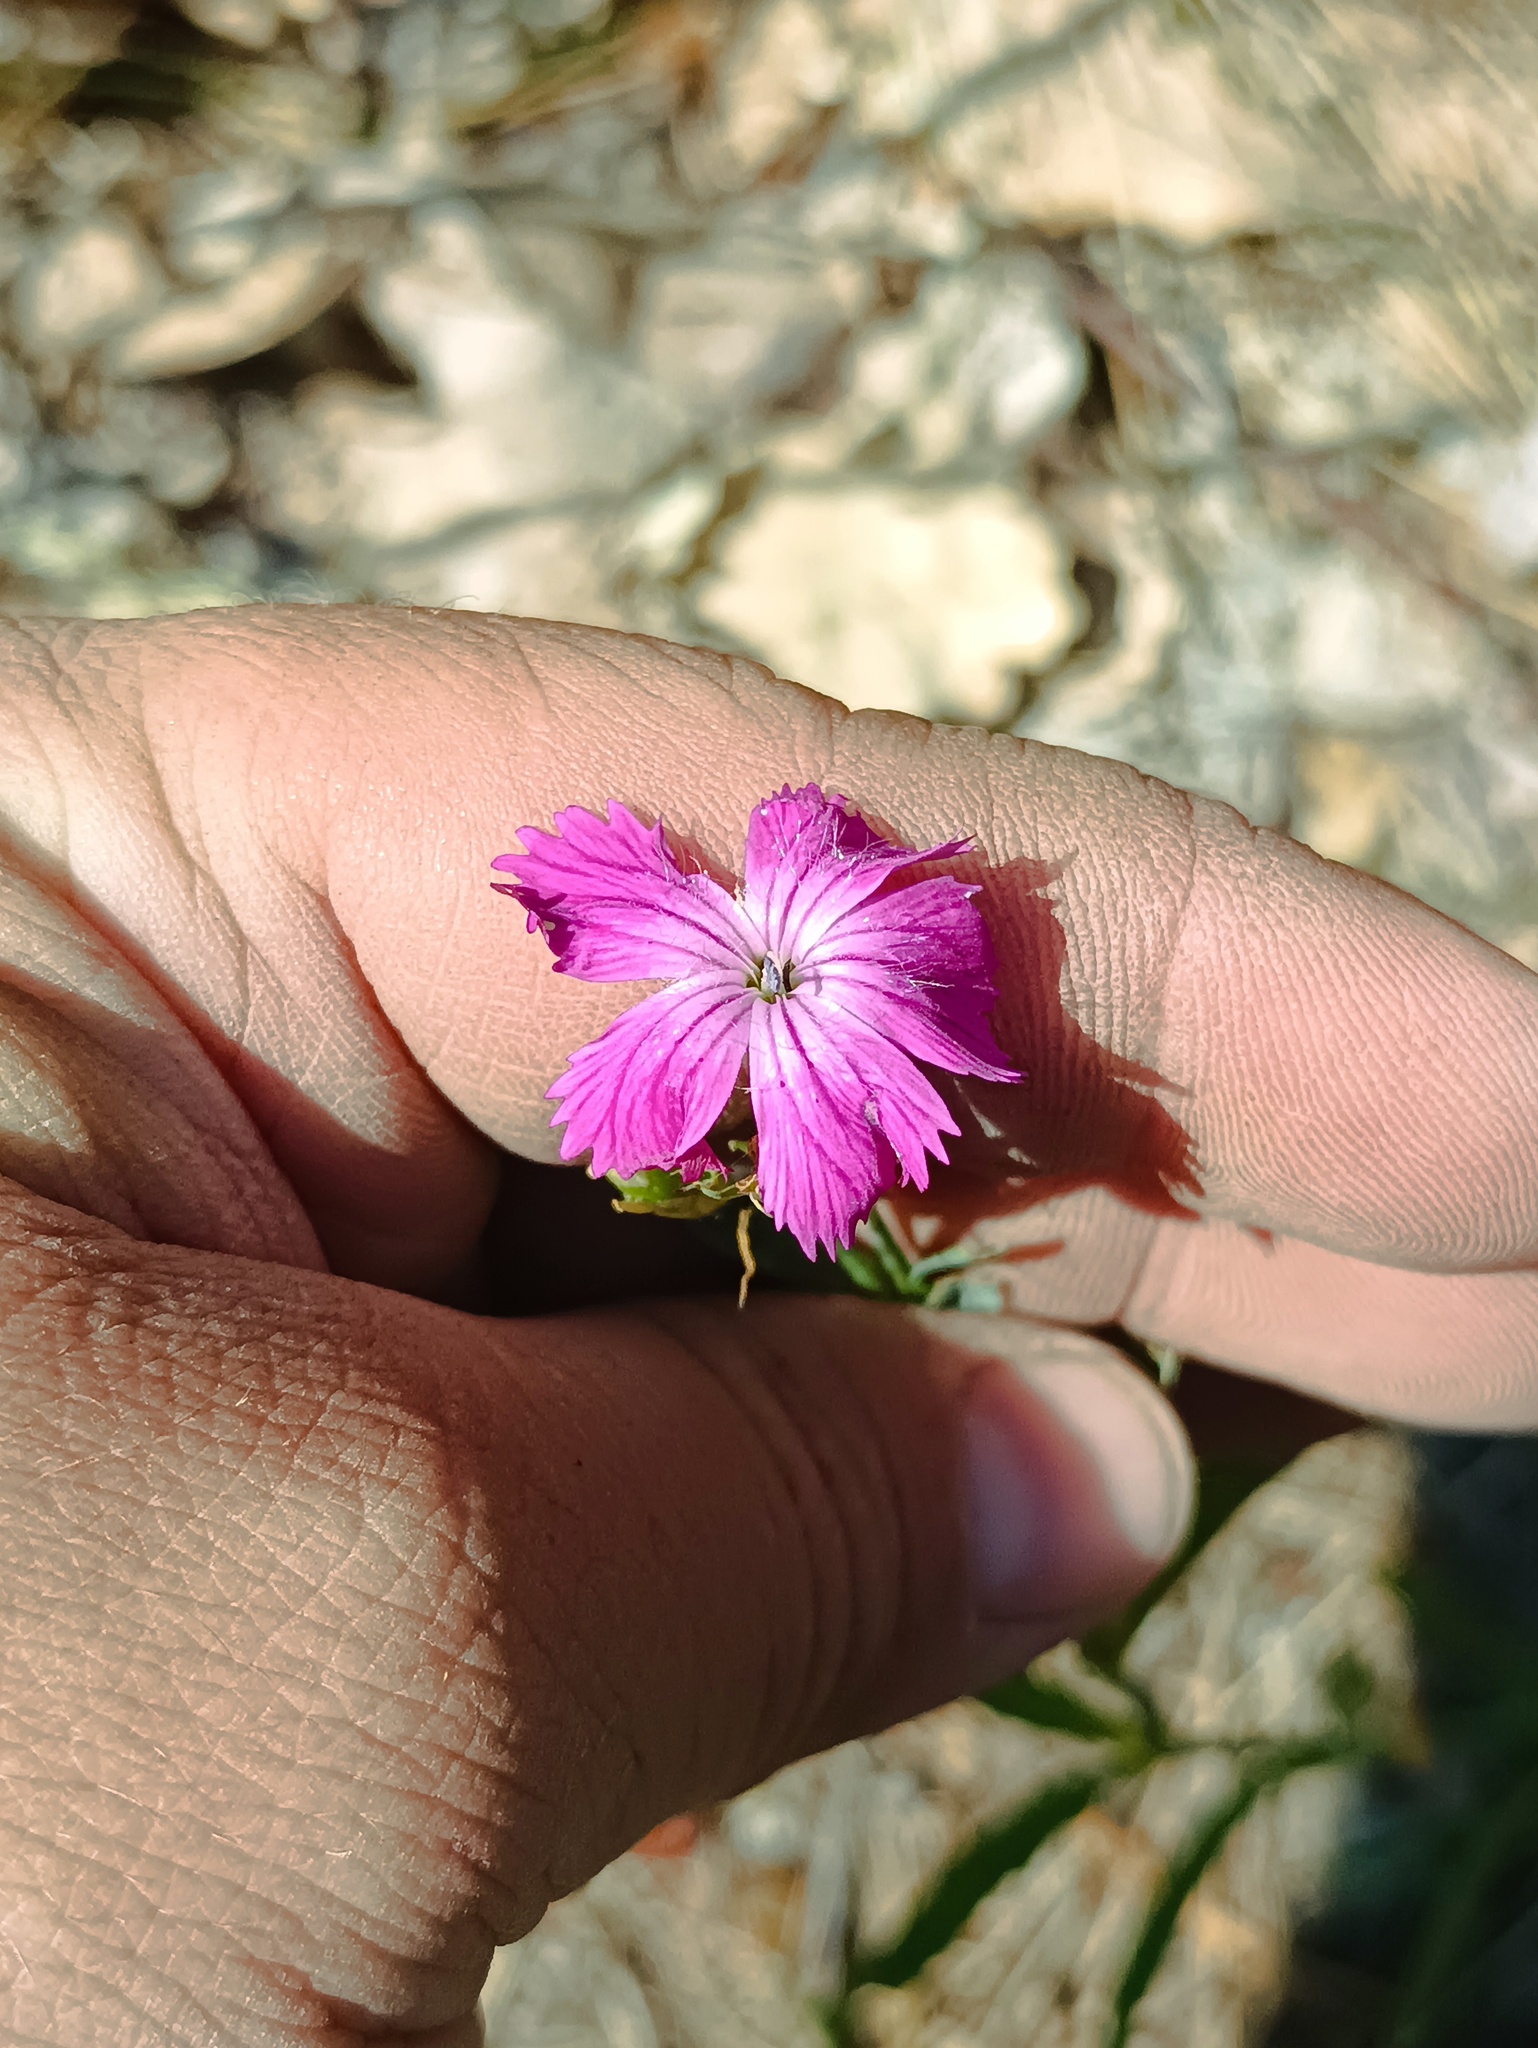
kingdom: Plantae
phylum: Tracheophyta
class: Magnoliopsida
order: Caryophyllales
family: Caryophyllaceae
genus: Dianthus
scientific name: Dianthus chinensis
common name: Rainbow pink
